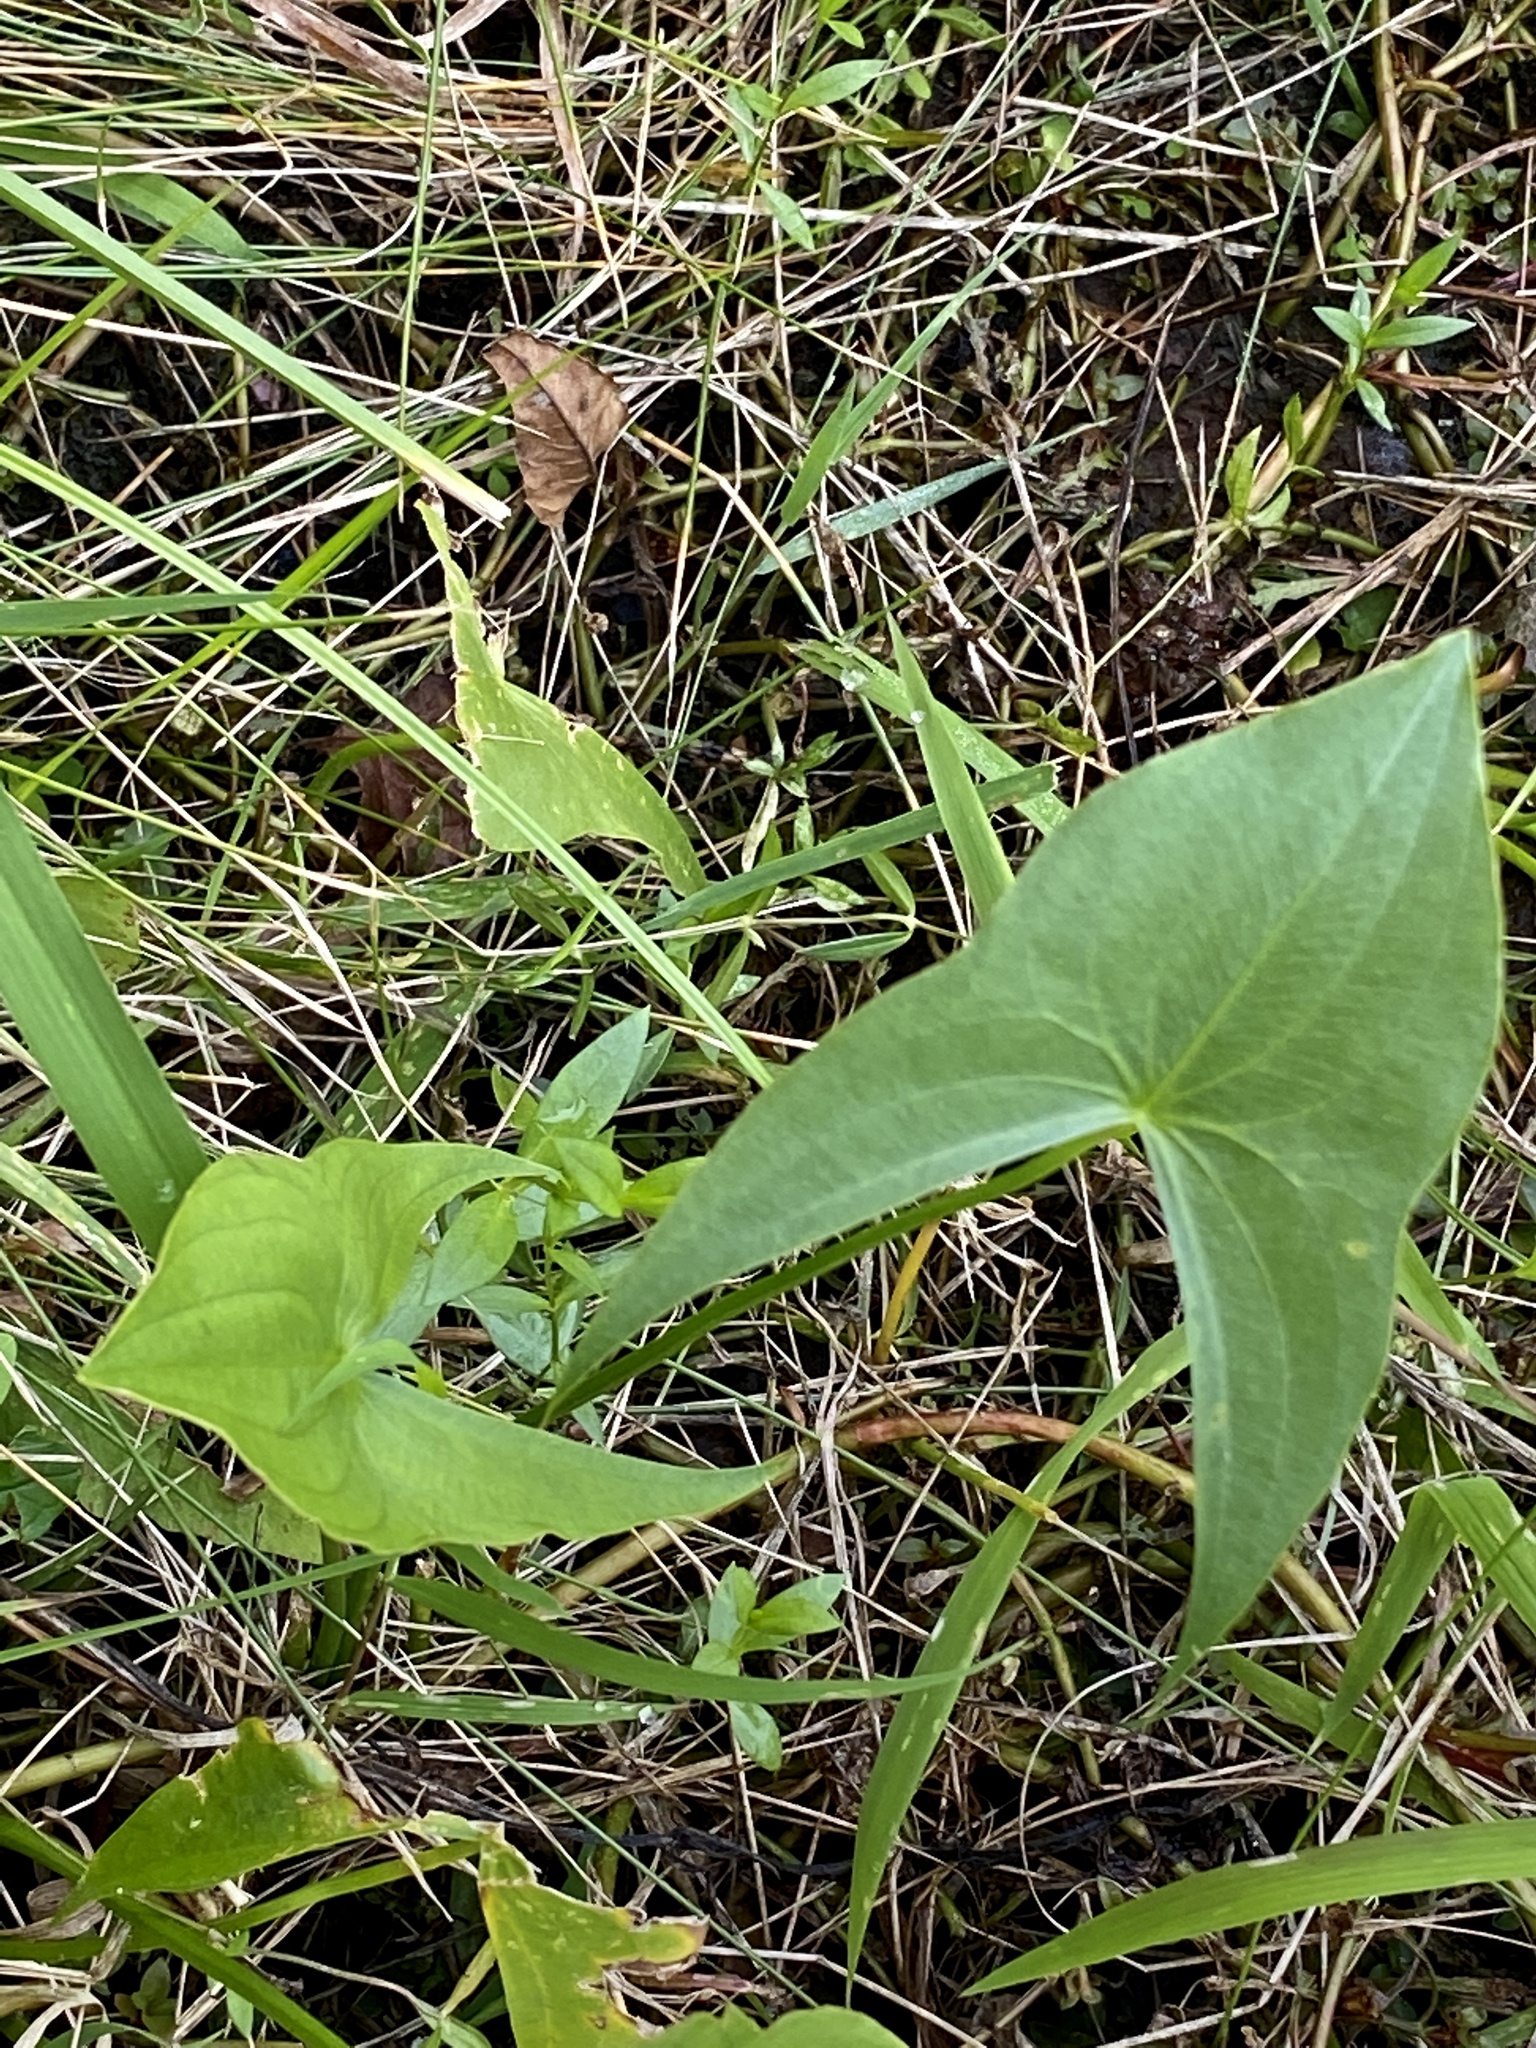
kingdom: Plantae
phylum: Tracheophyta
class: Liliopsida
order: Alismatales
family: Alismataceae
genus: Sagittaria
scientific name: Sagittaria latifolia
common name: Duck-potato
